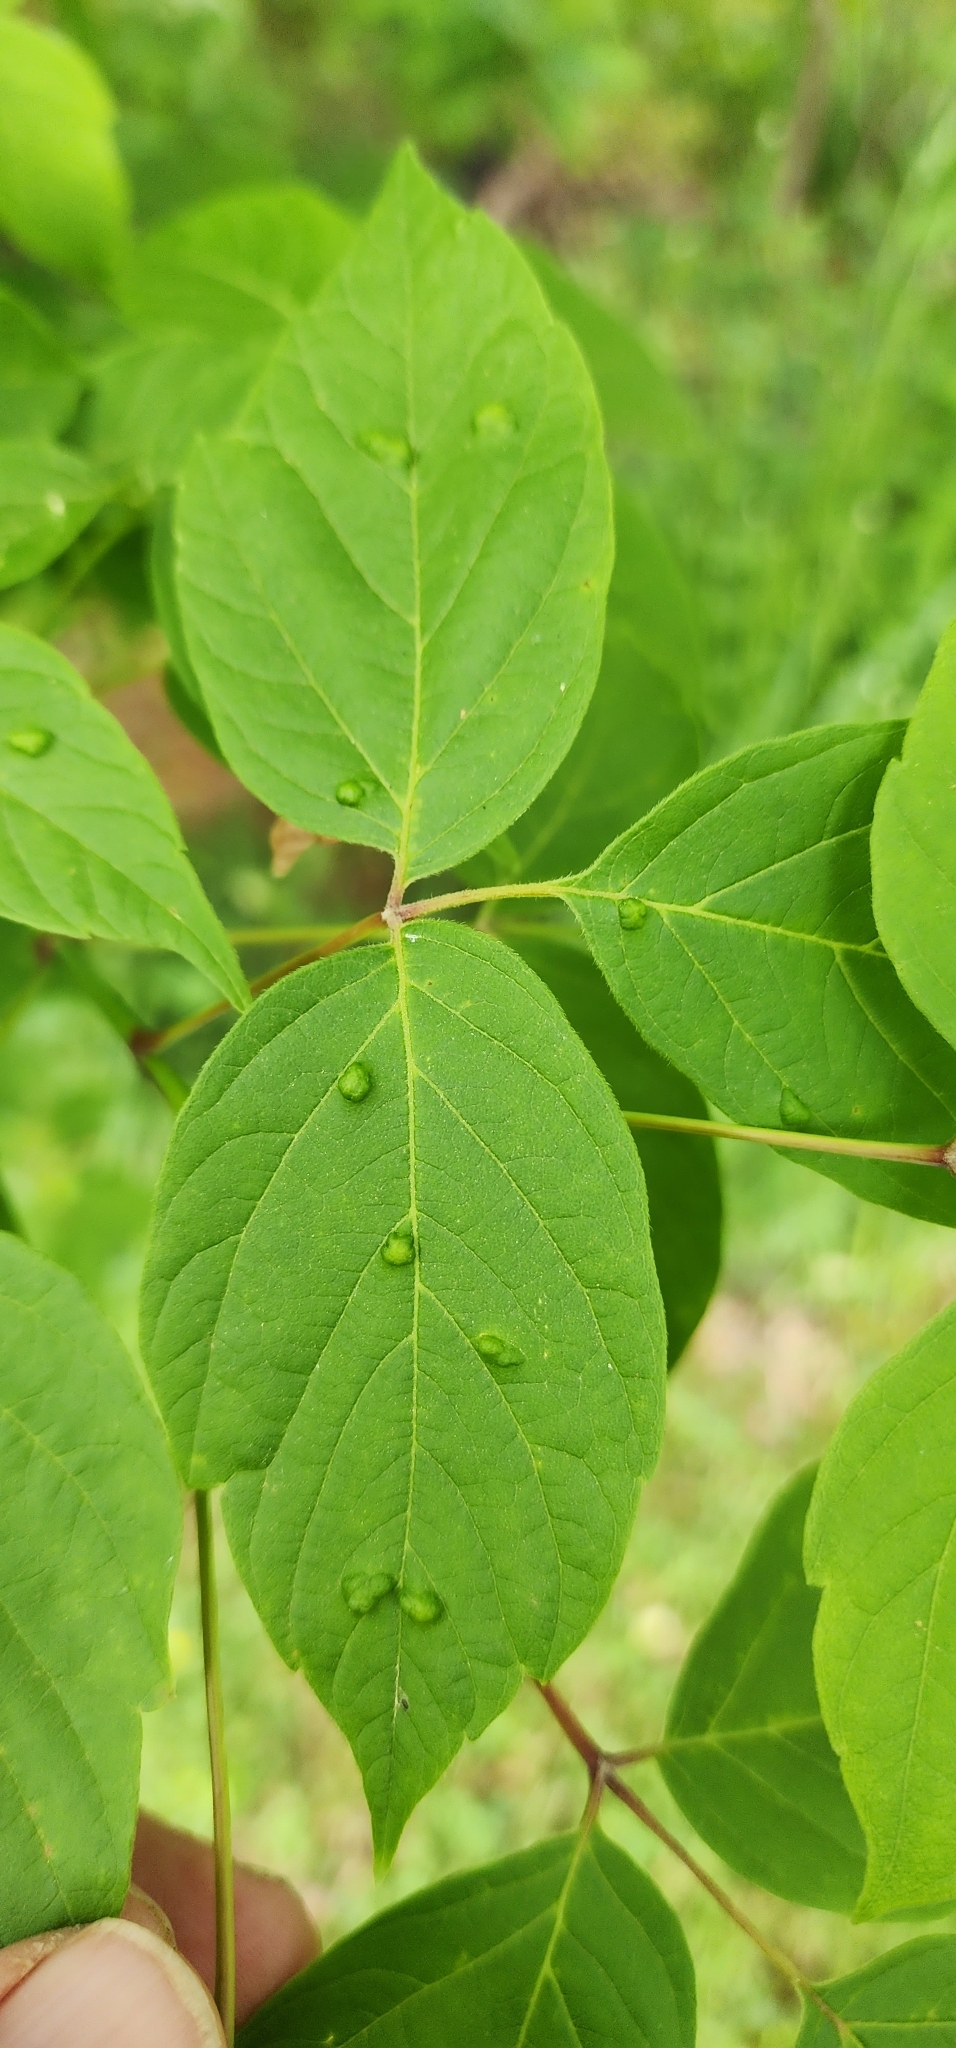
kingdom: Animalia
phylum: Arthropoda
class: Arachnida
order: Trombidiformes
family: Eriophyidae
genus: Aceria
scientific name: Aceria
